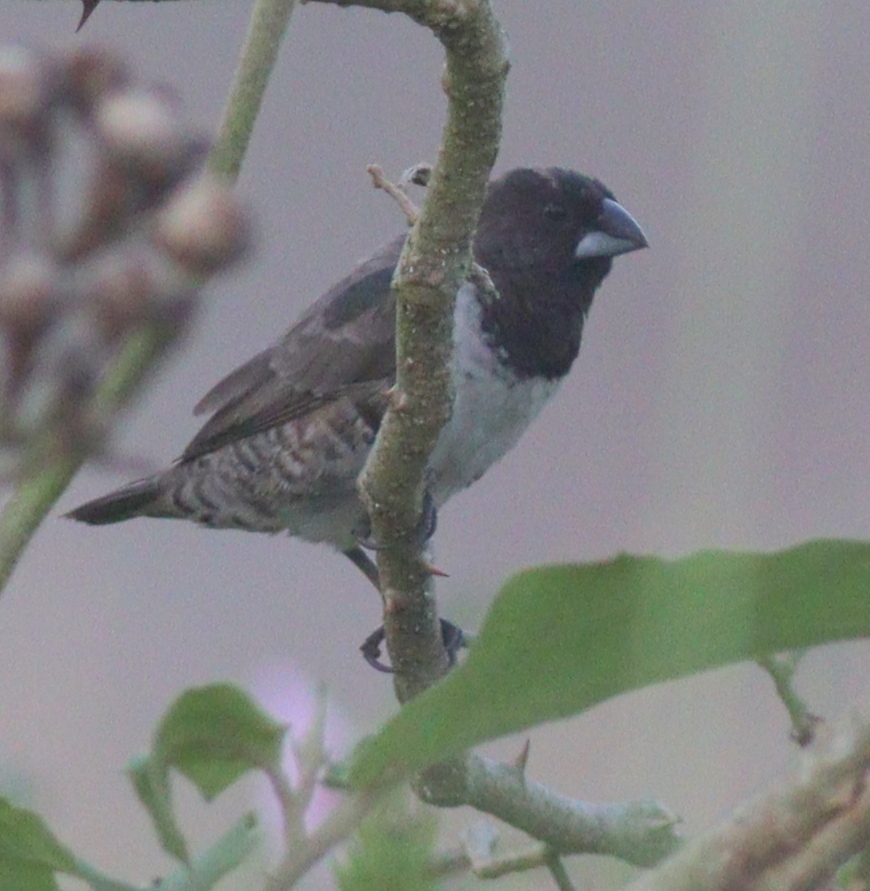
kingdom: Animalia
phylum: Chordata
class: Aves
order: Passeriformes
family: Estrildidae
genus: Lonchura
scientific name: Lonchura cucullata
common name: Bronze mannikin
